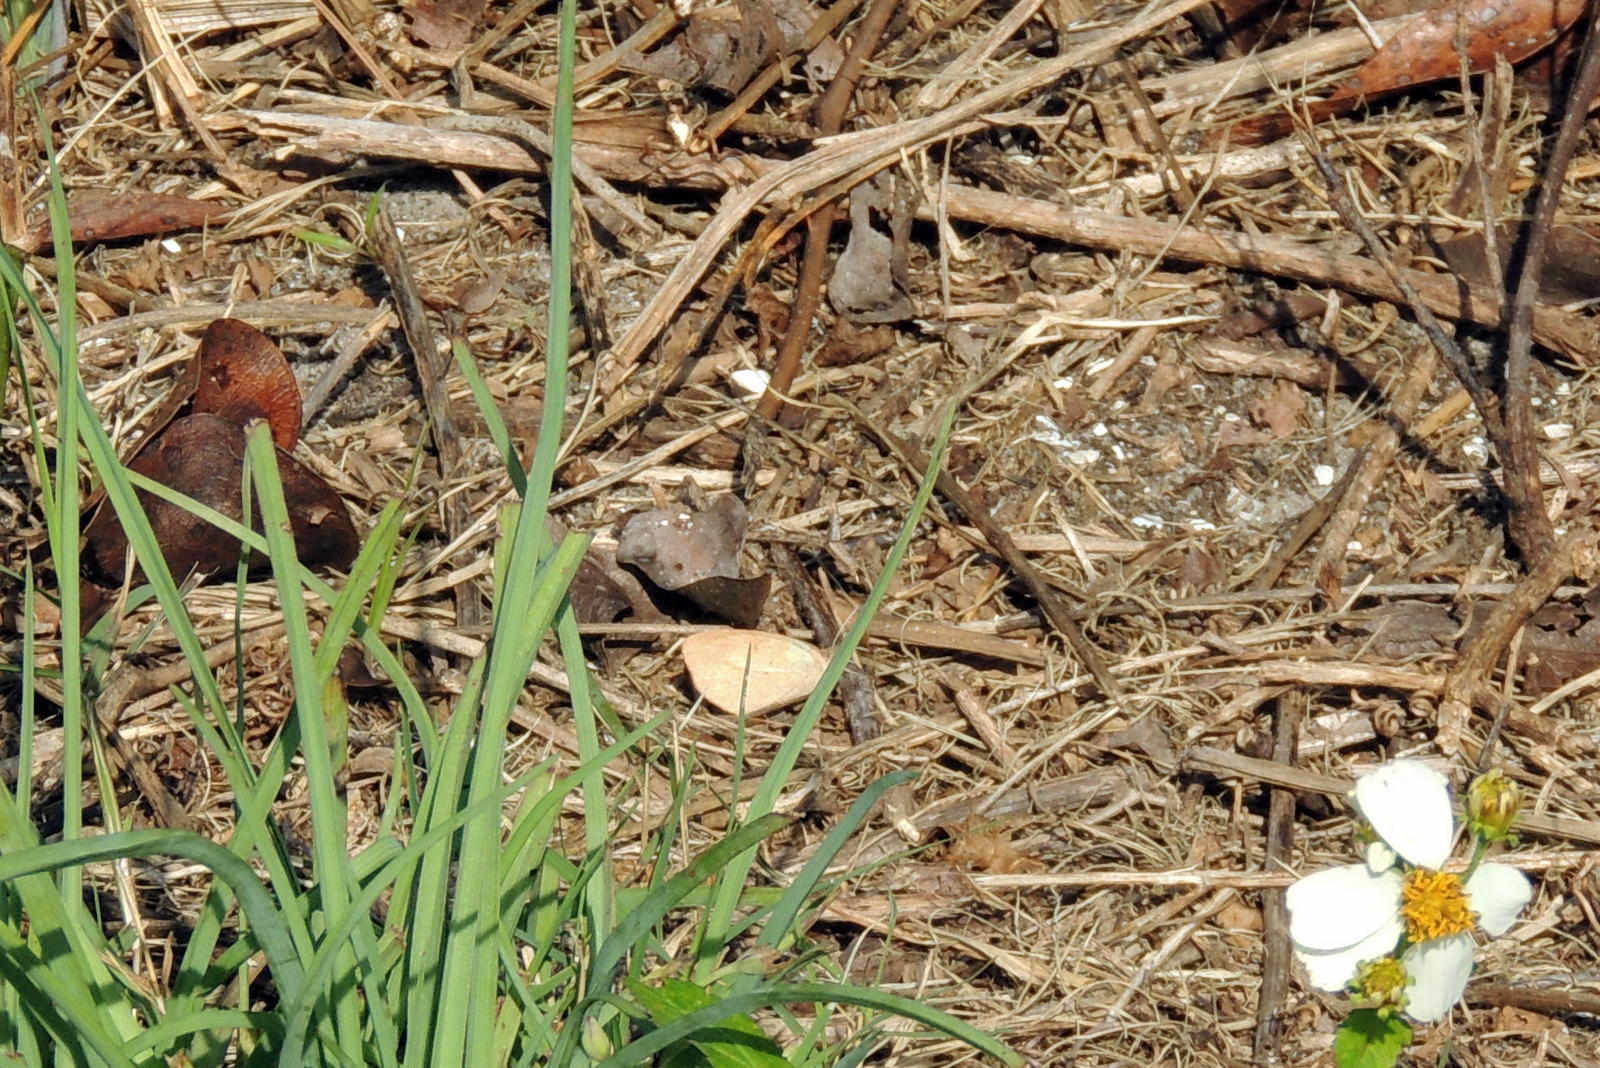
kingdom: Animalia
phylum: Arthropoda
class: Insecta
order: Lepidoptera
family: Pieridae
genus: Eurema
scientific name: Eurema daira
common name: Barred sulphur
